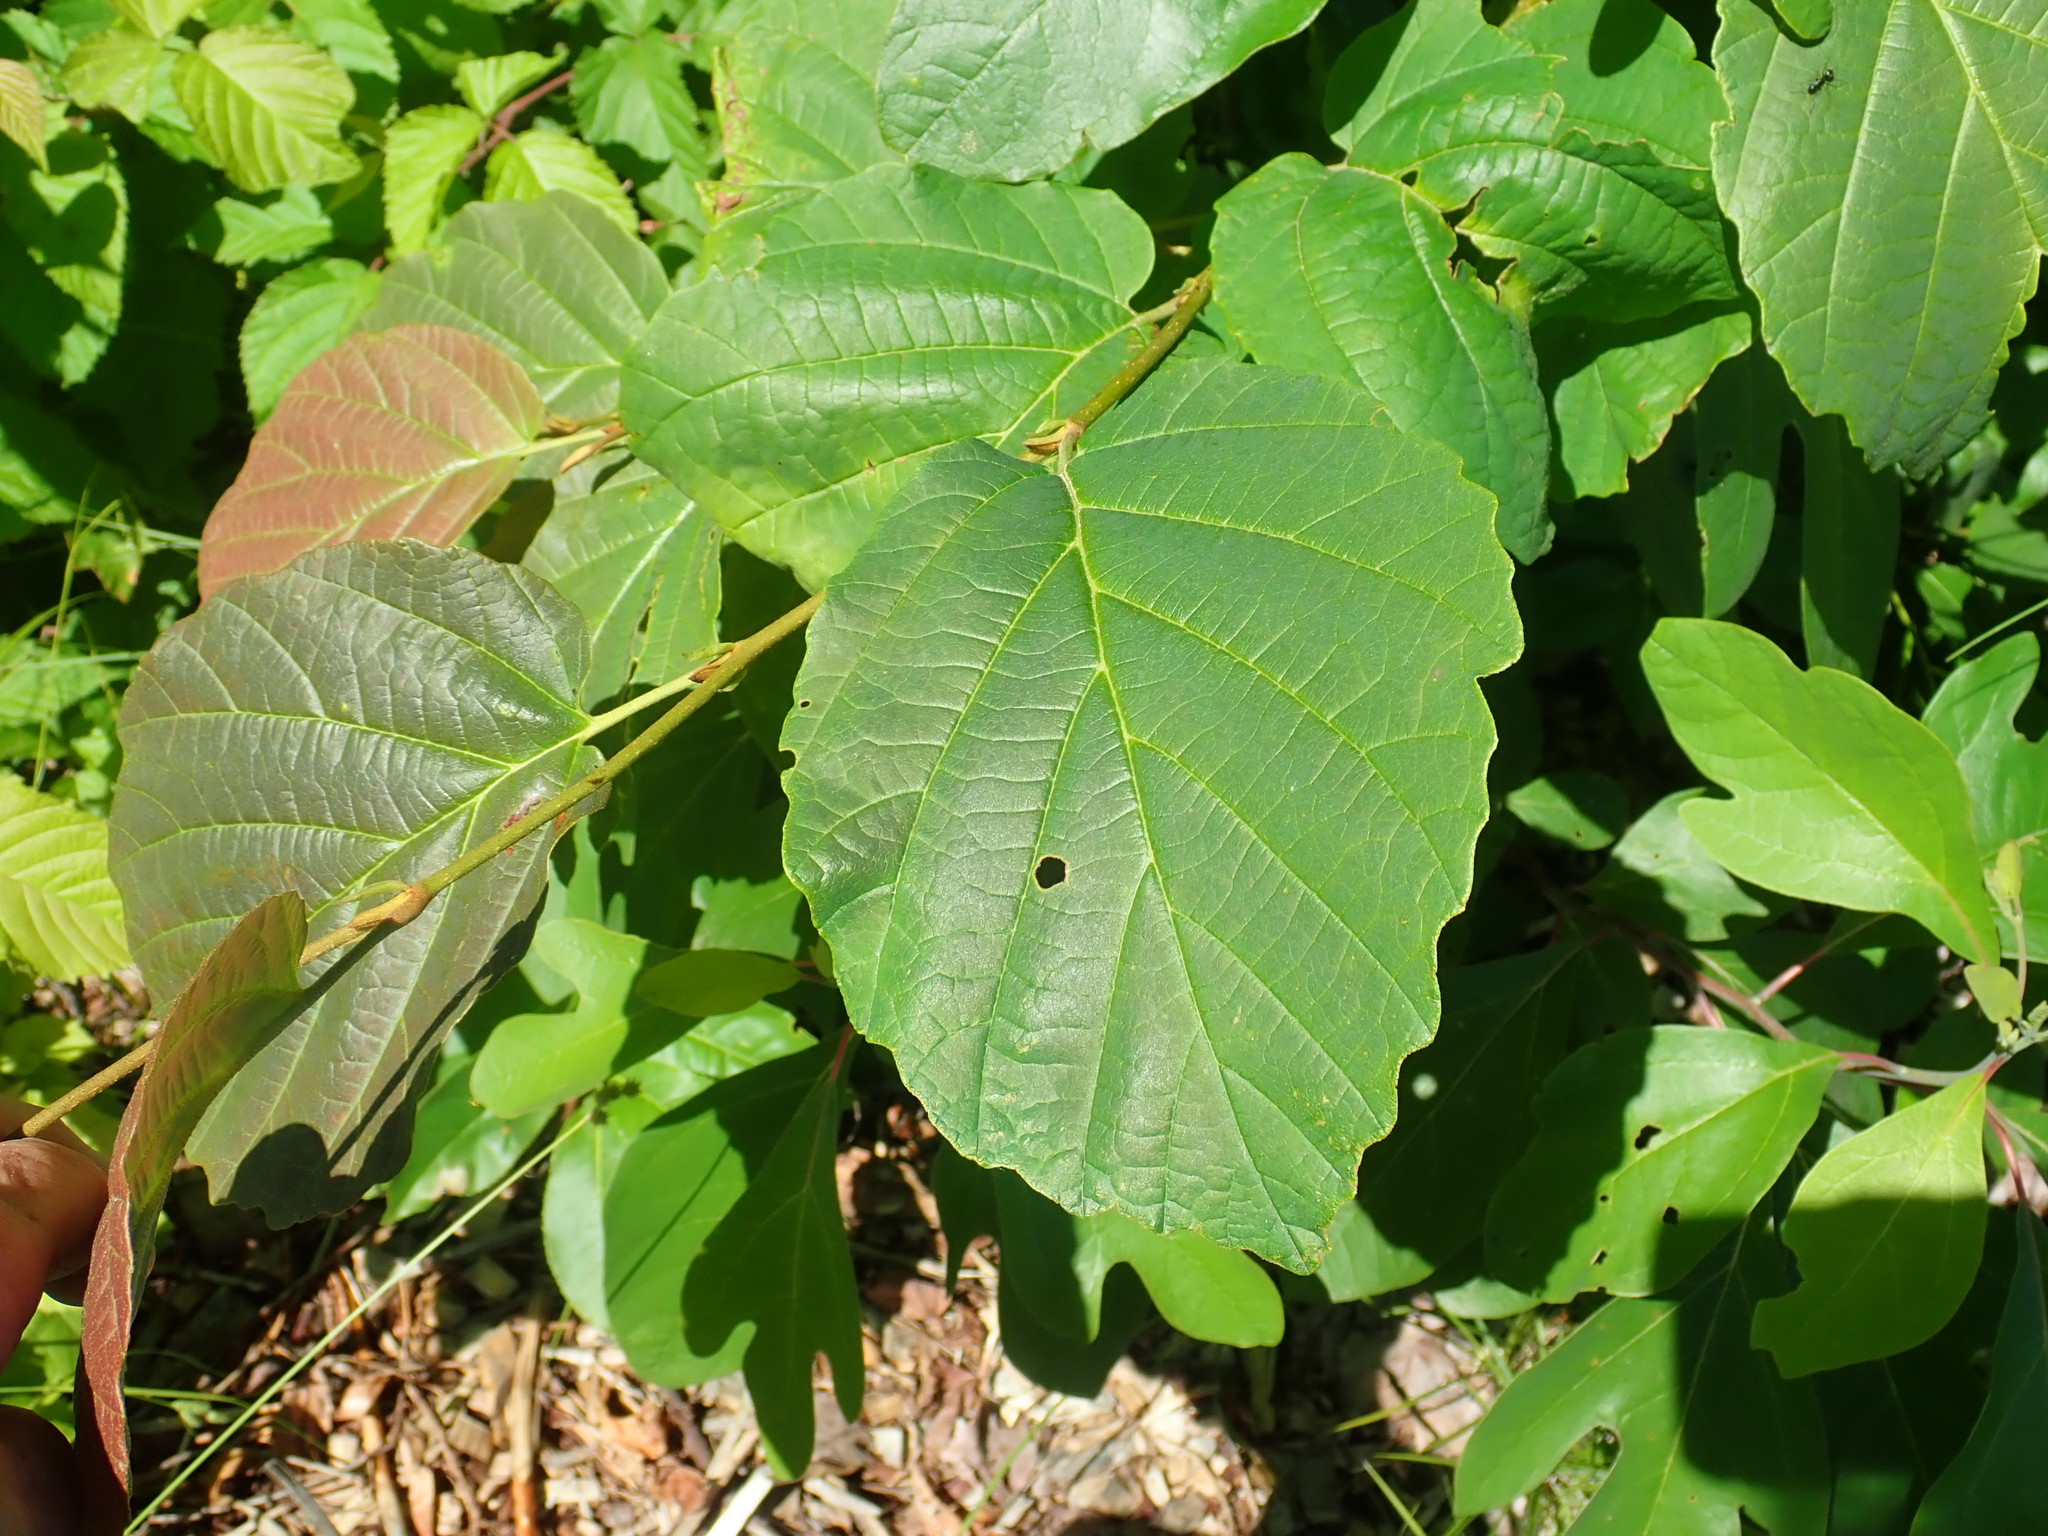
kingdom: Plantae
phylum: Tracheophyta
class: Magnoliopsida
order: Saxifragales
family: Hamamelidaceae
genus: Hamamelis
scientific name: Hamamelis virginiana
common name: Witch-hazel
